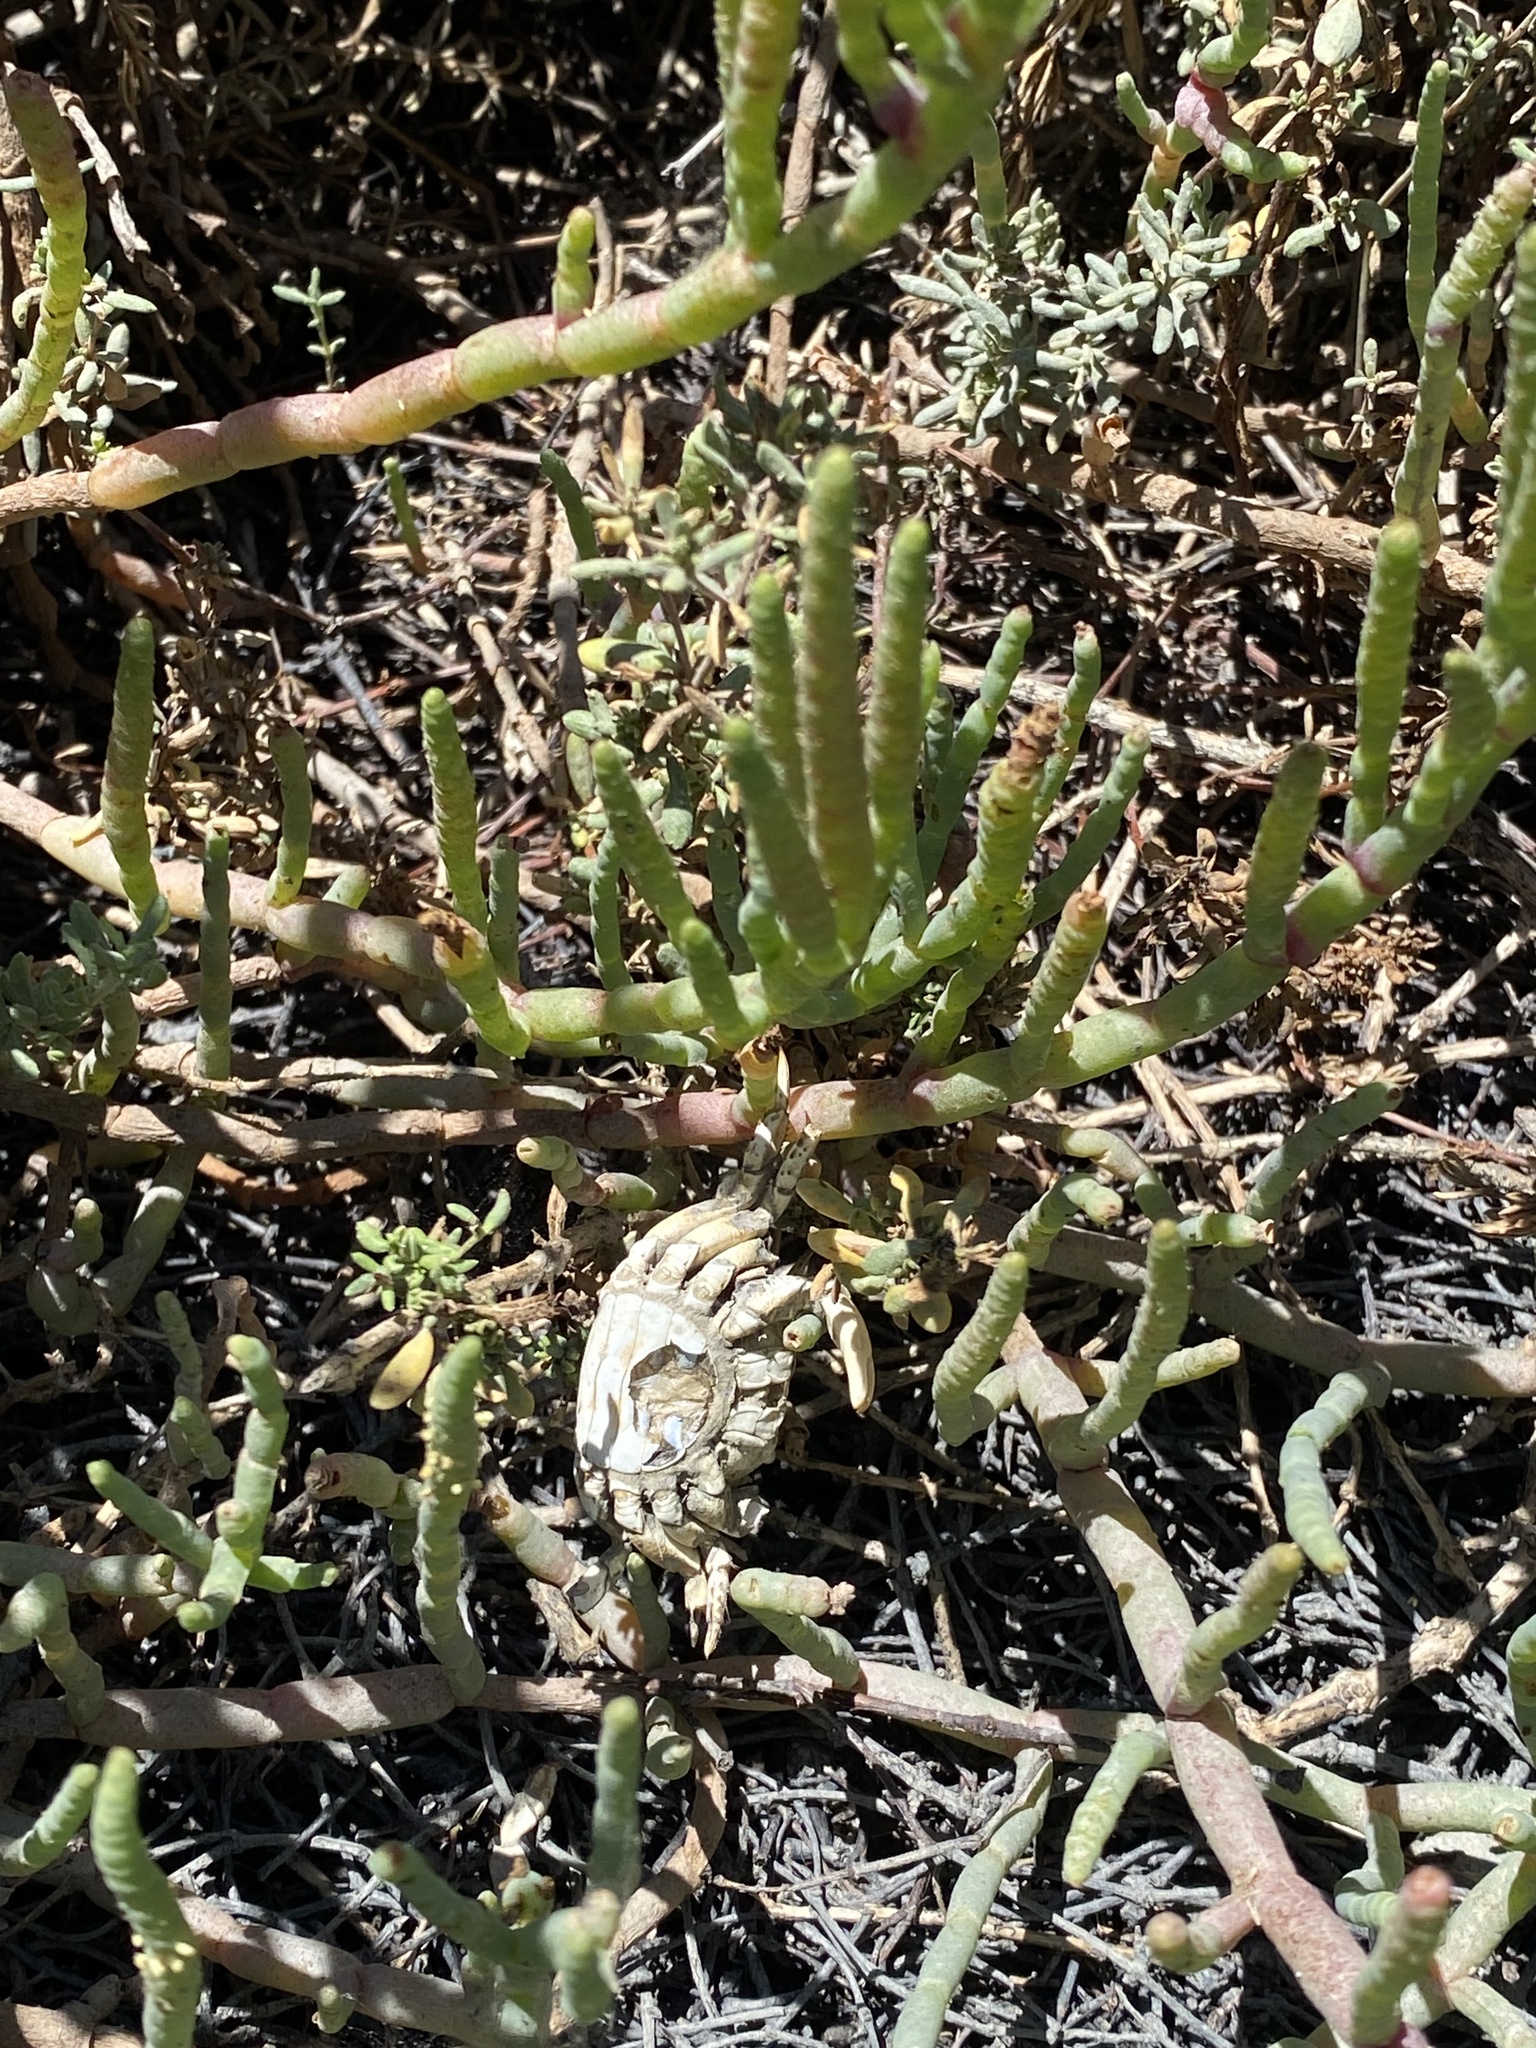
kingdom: Animalia
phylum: Arthropoda
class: Malacostraca
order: Decapoda
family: Varunidae
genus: Hemigrapsus
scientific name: Hemigrapsus oregonensis
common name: Yellow shore crab
